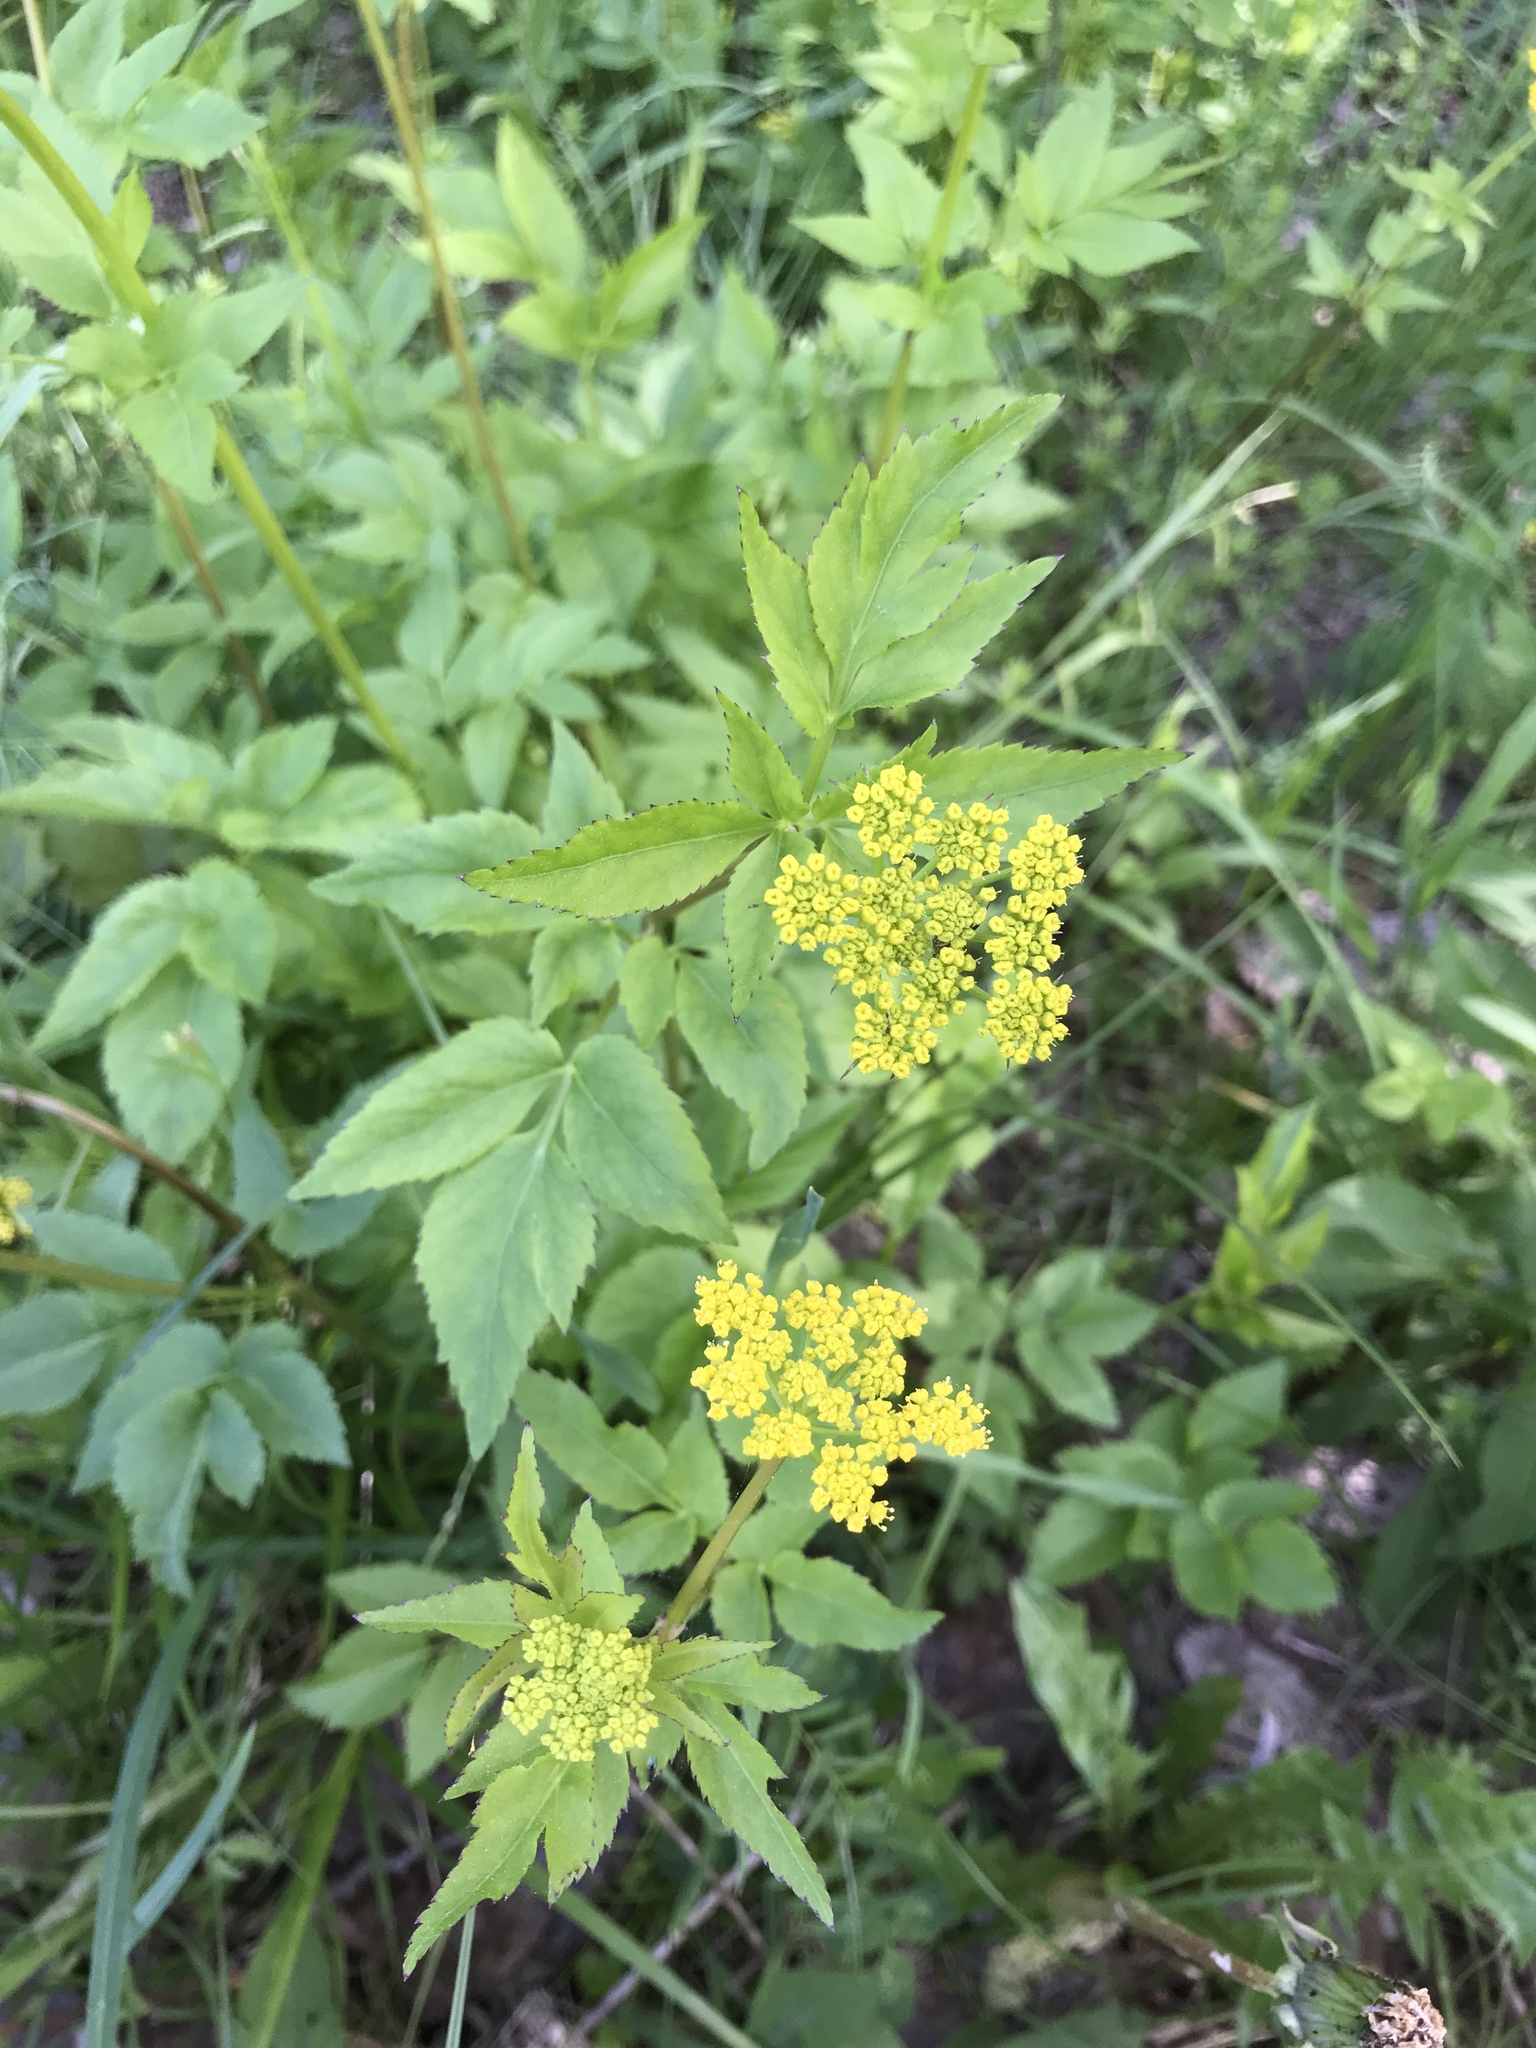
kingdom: Plantae
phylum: Tracheophyta
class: Magnoliopsida
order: Apiales
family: Apiaceae
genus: Zizia
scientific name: Zizia aurea
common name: Golden alexanders
